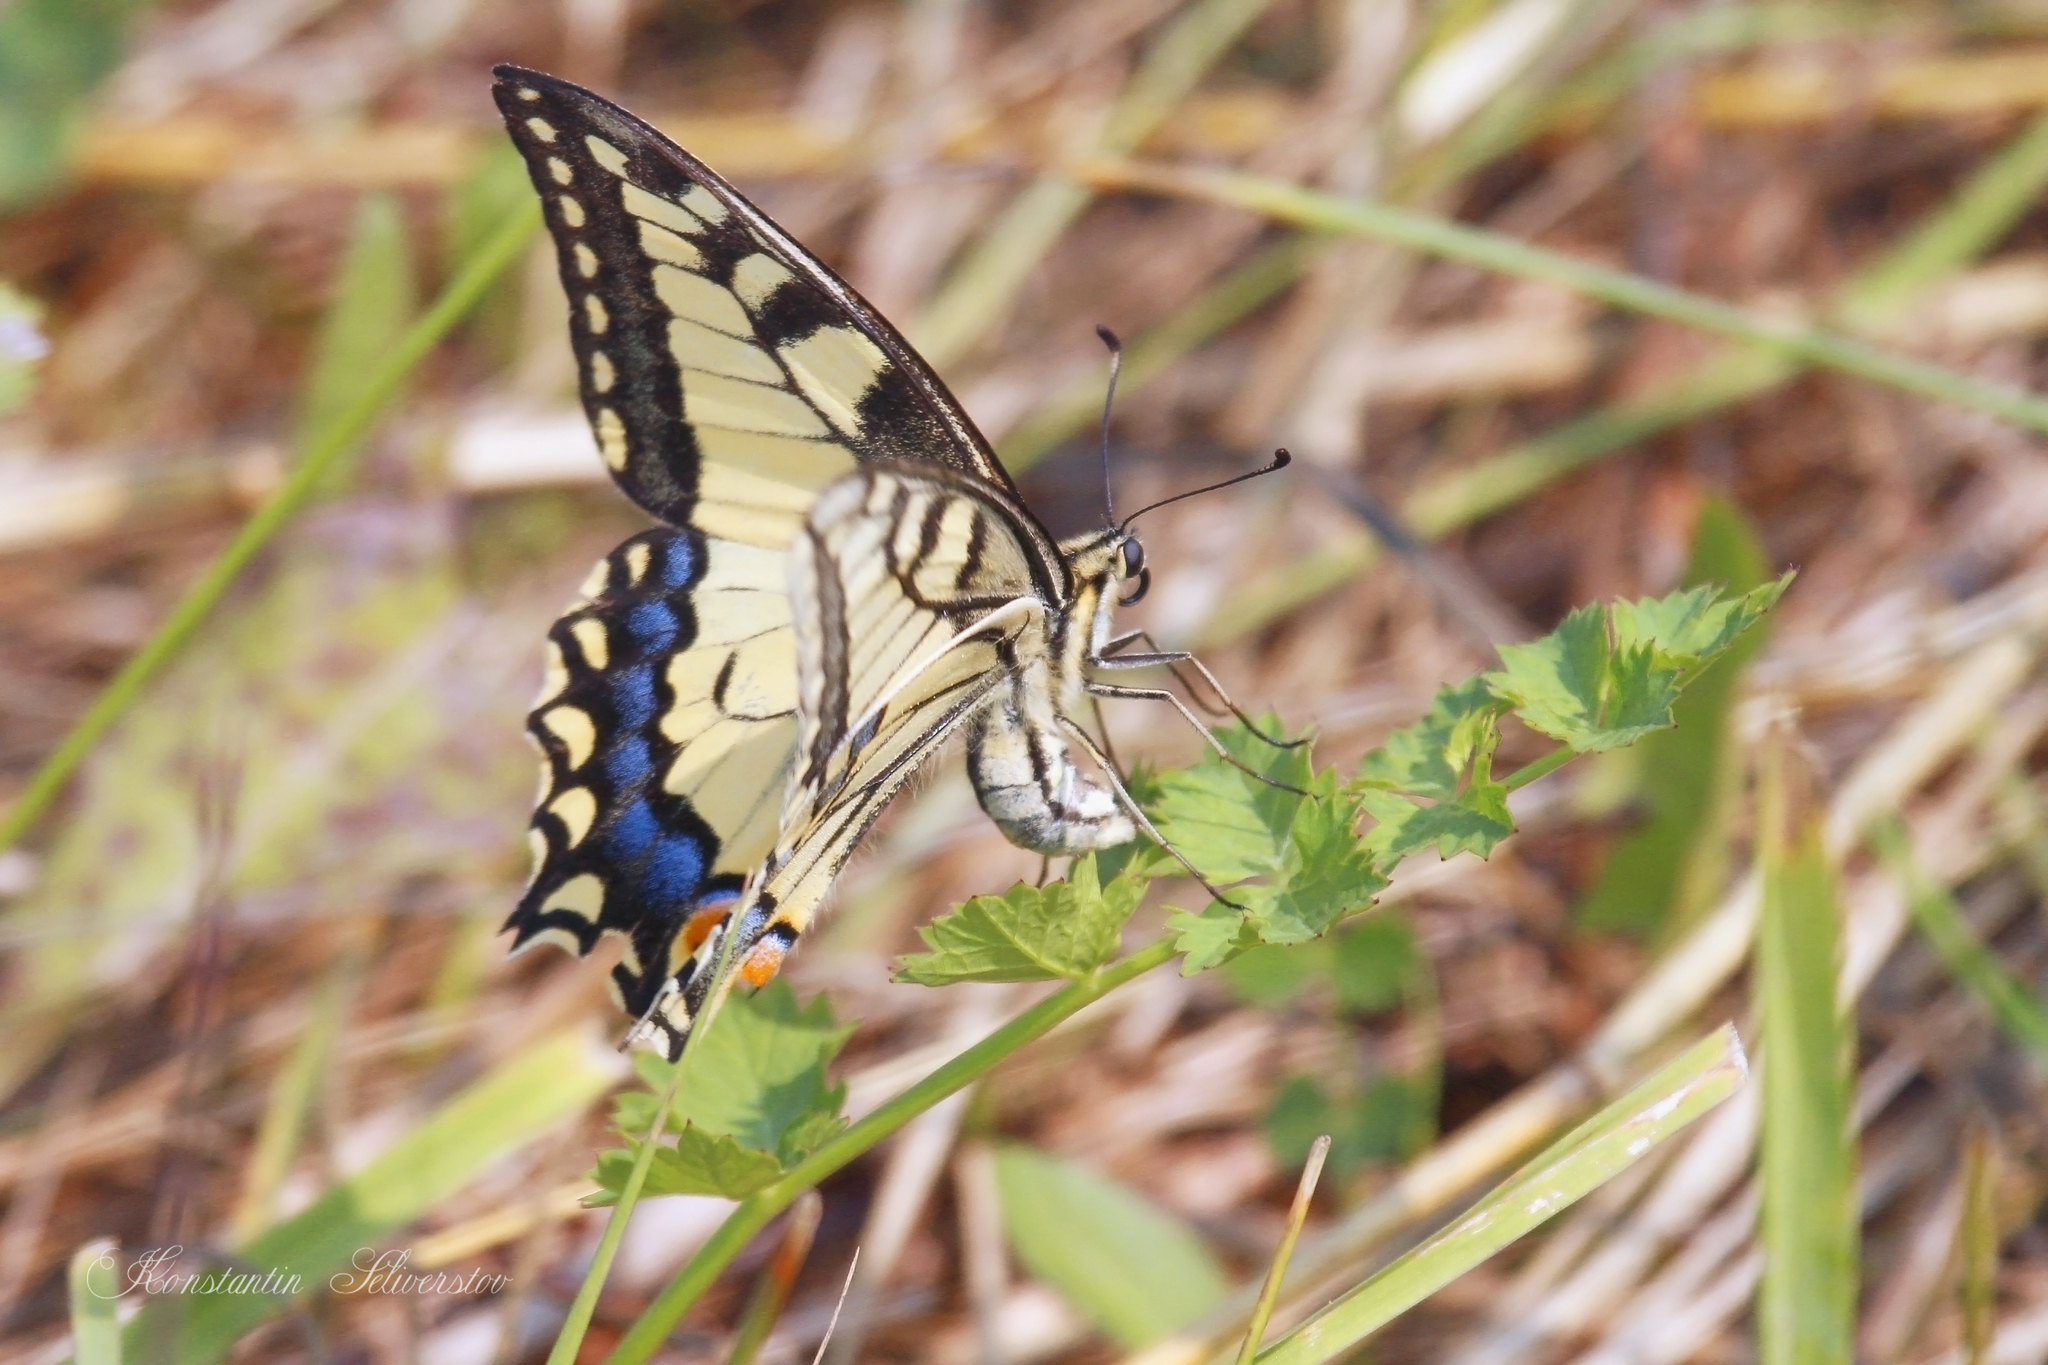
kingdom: Animalia
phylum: Arthropoda
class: Insecta
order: Lepidoptera
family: Papilionidae
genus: Papilio
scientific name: Papilio machaon
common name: Swallowtail
